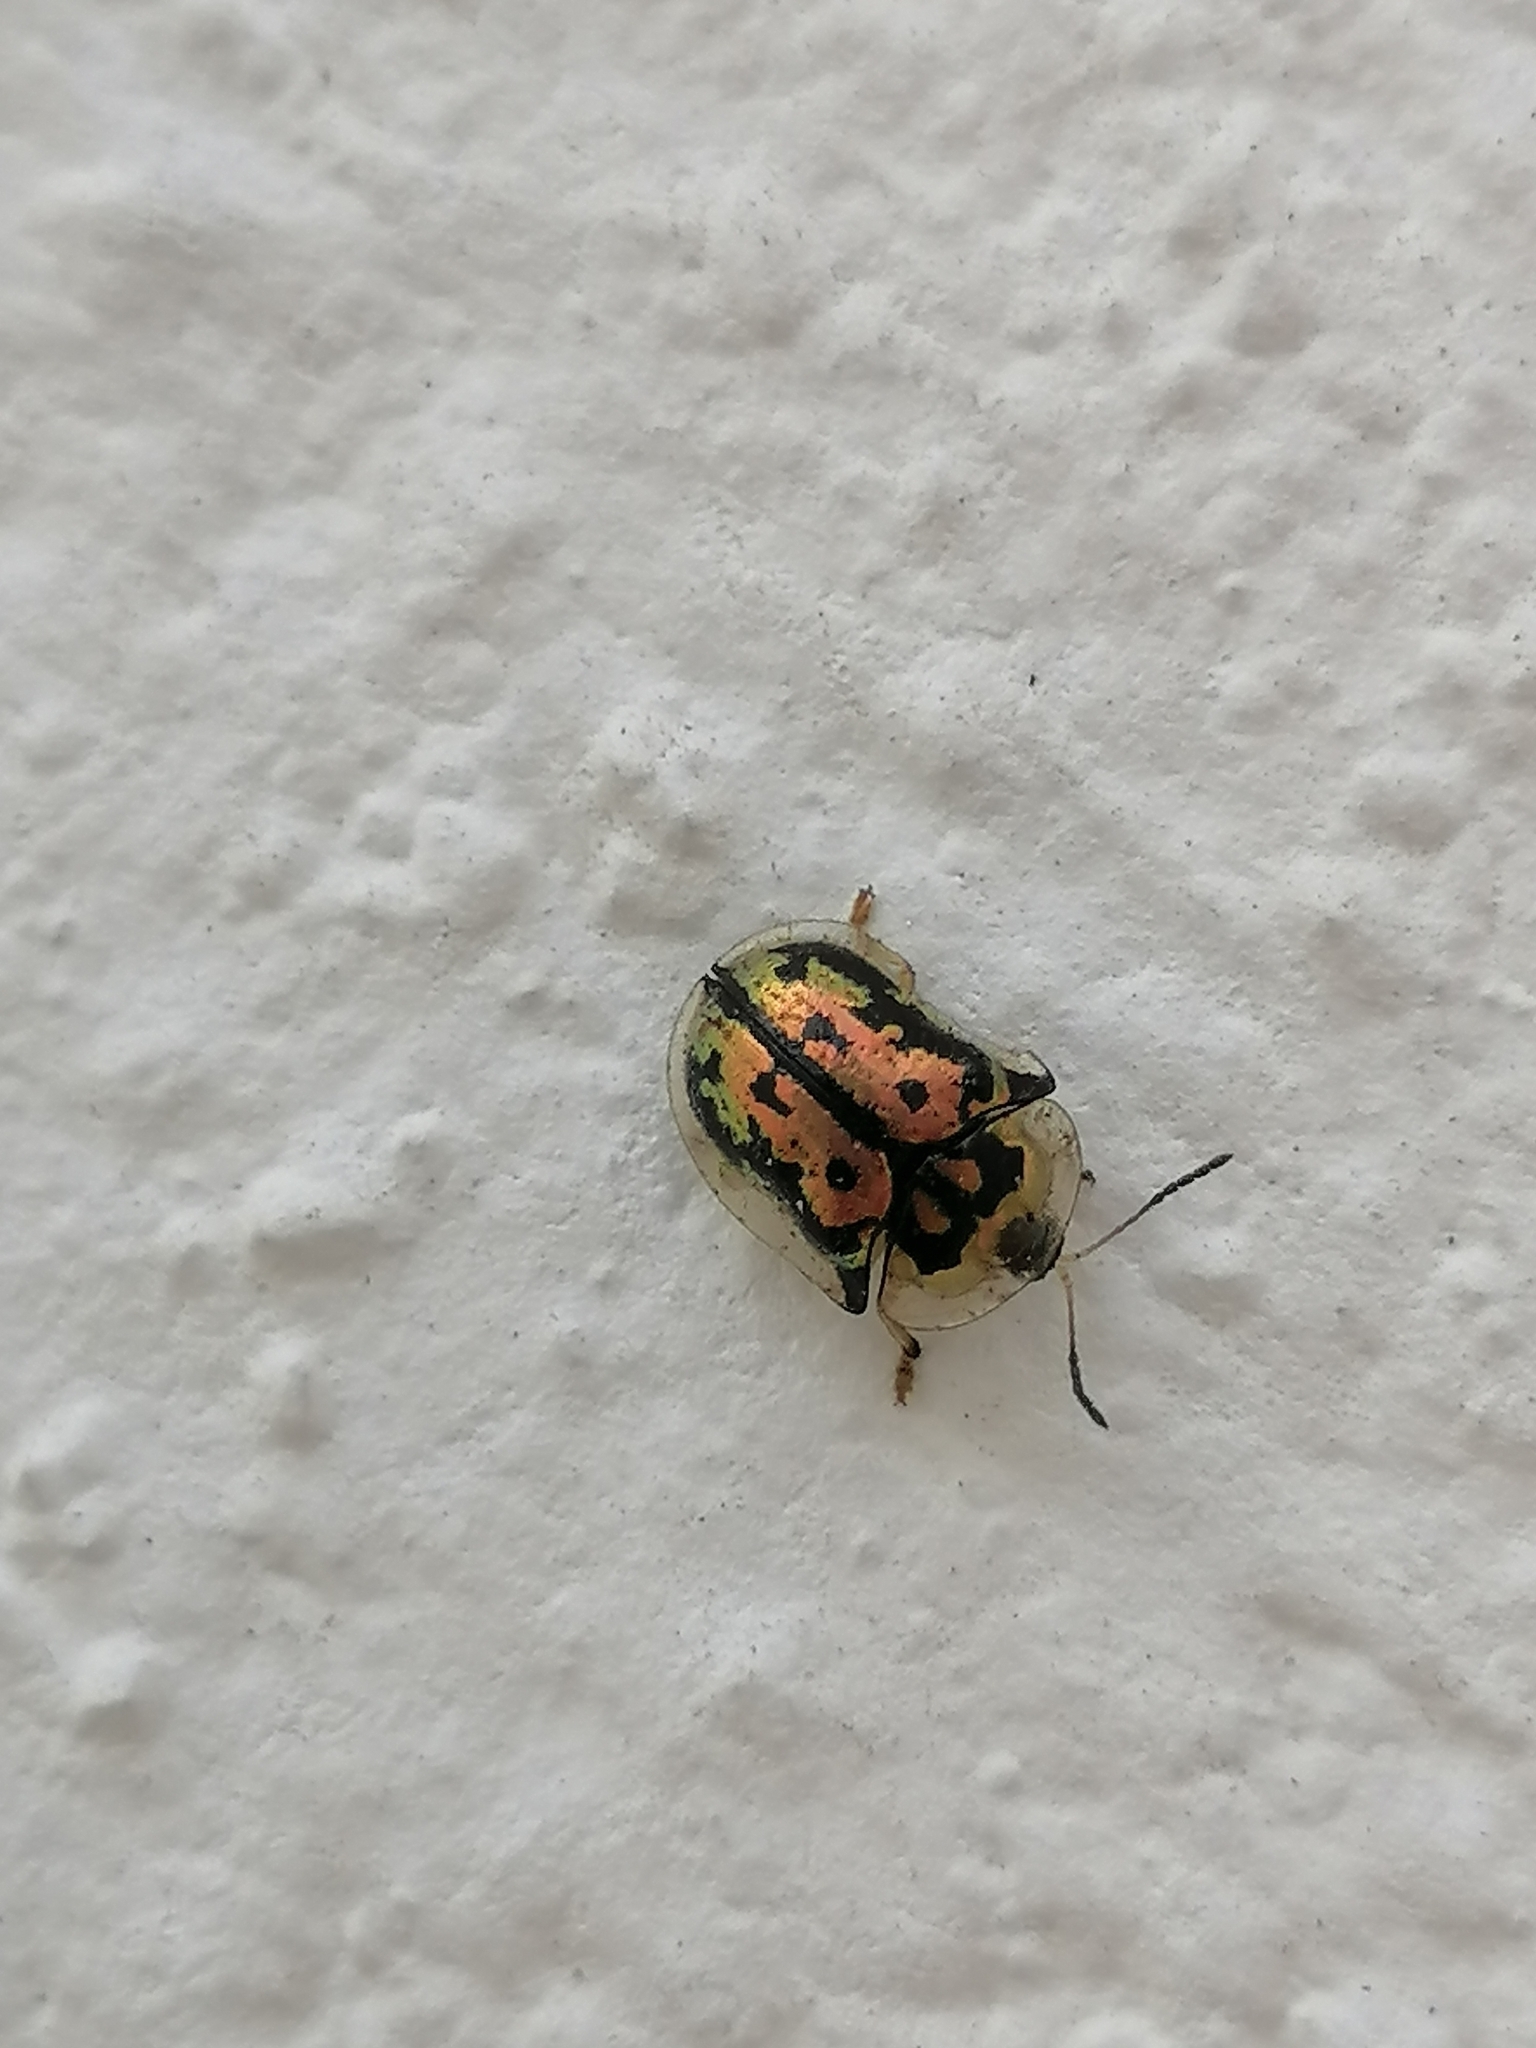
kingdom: Animalia
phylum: Arthropoda
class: Insecta
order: Coleoptera
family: Chrysomelidae
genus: Deloyala
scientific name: Deloyala lecontei
